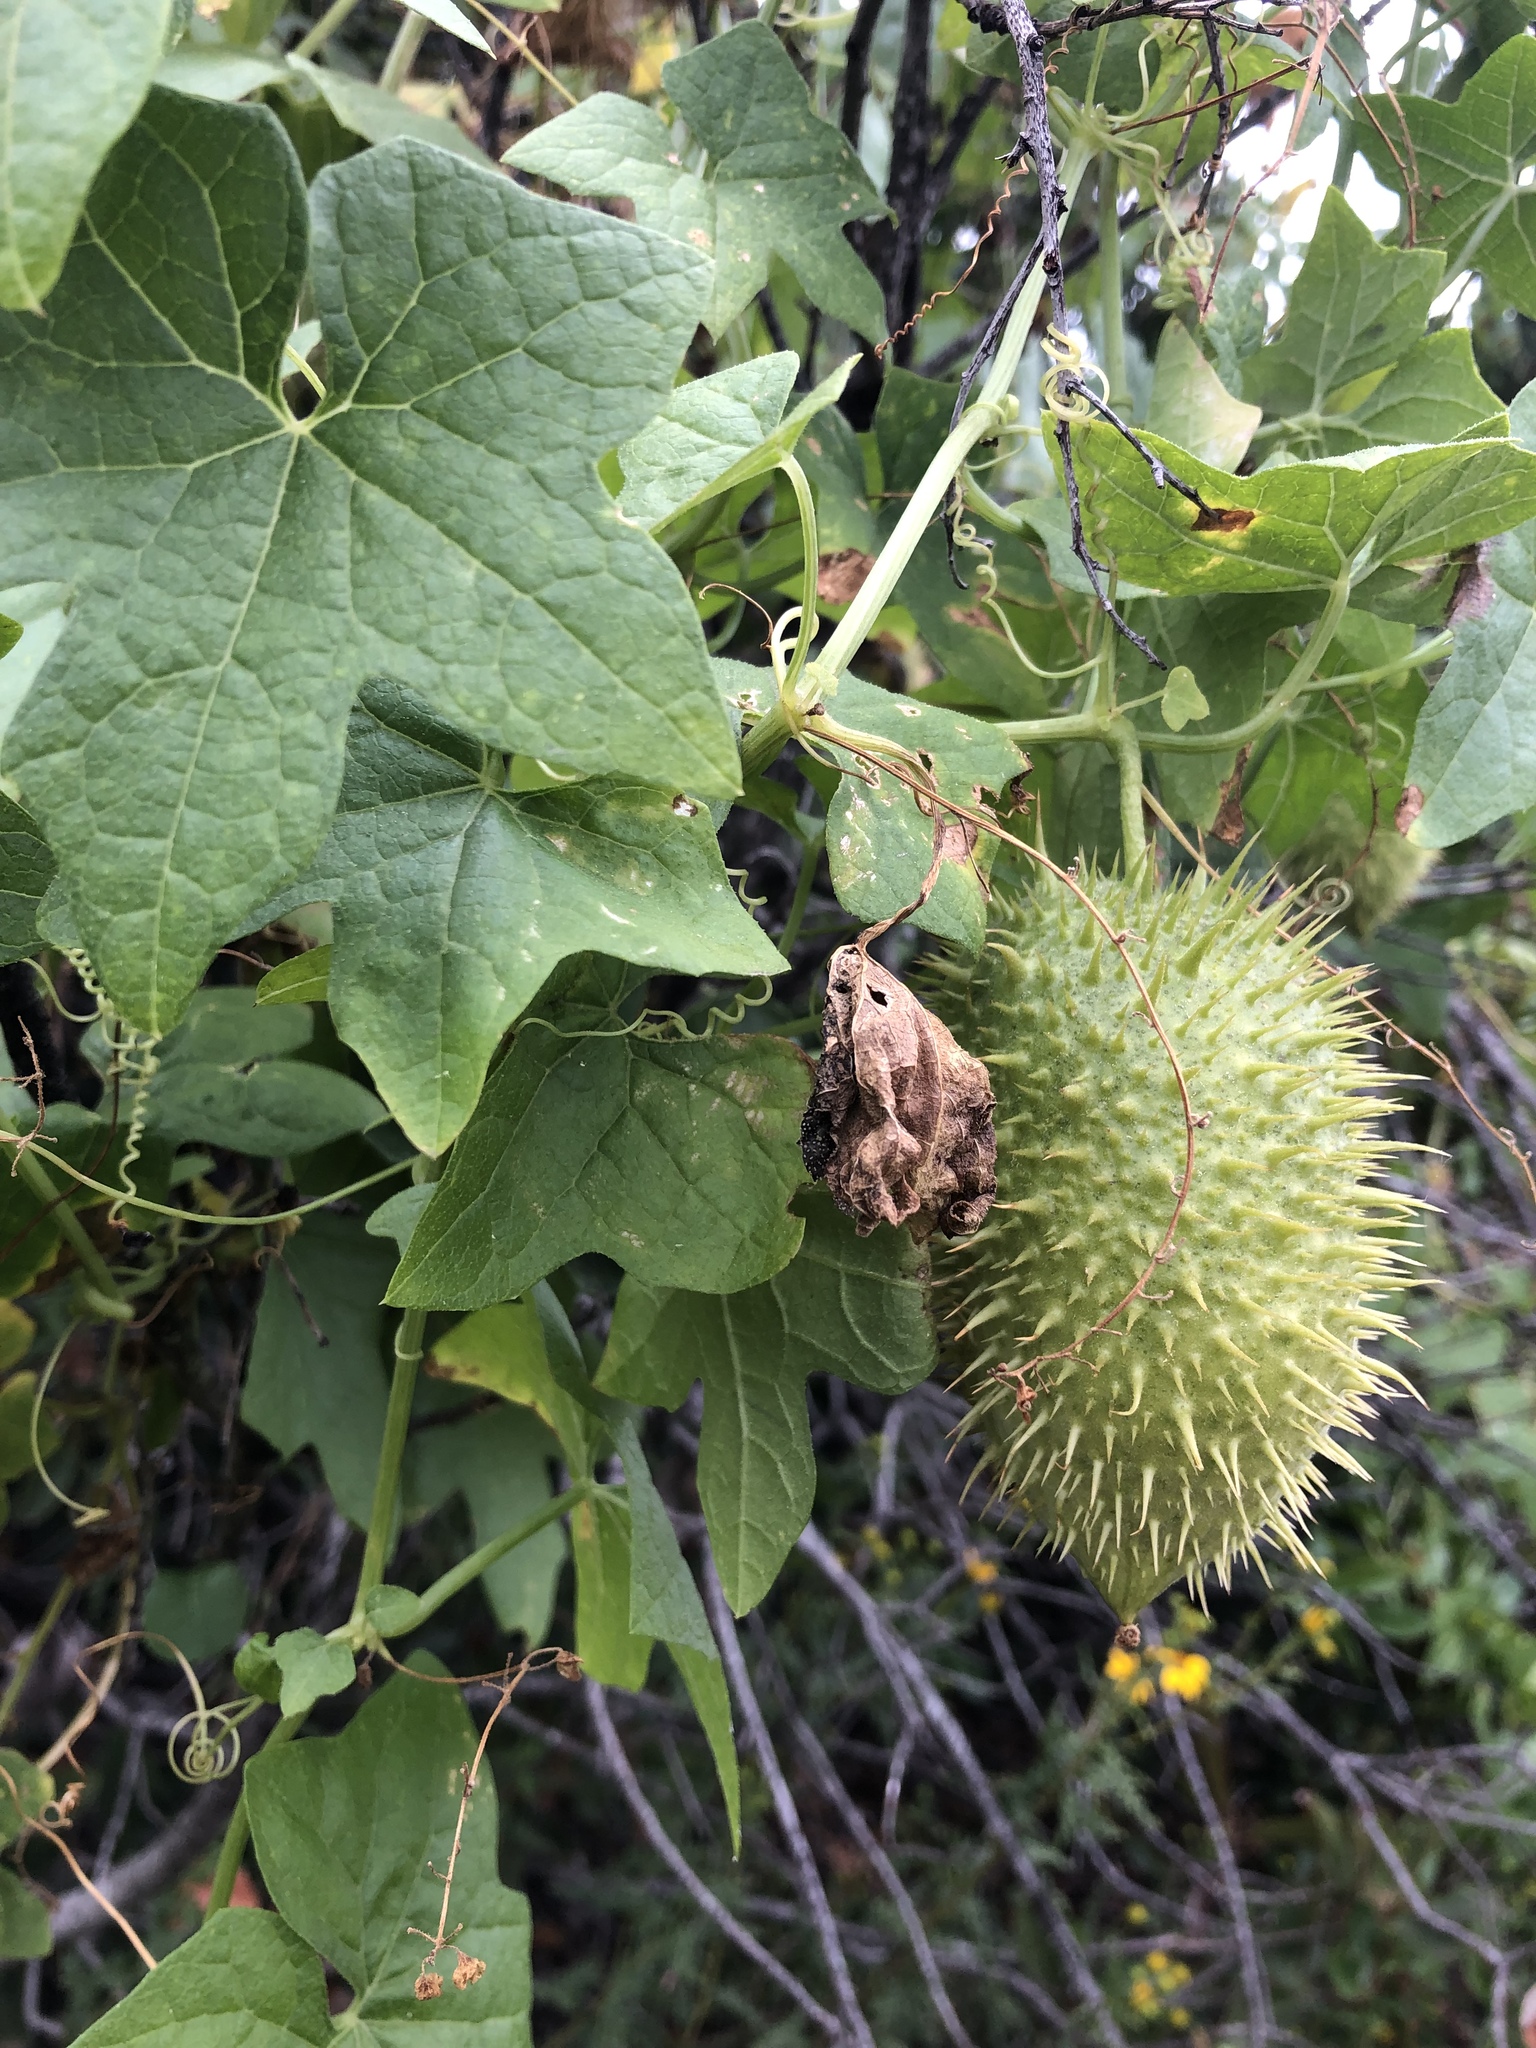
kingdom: Plantae
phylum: Tracheophyta
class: Magnoliopsida
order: Cucurbitales
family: Cucurbitaceae
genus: Marah
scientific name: Marah macrocarpa
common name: Cucamonga manroot
